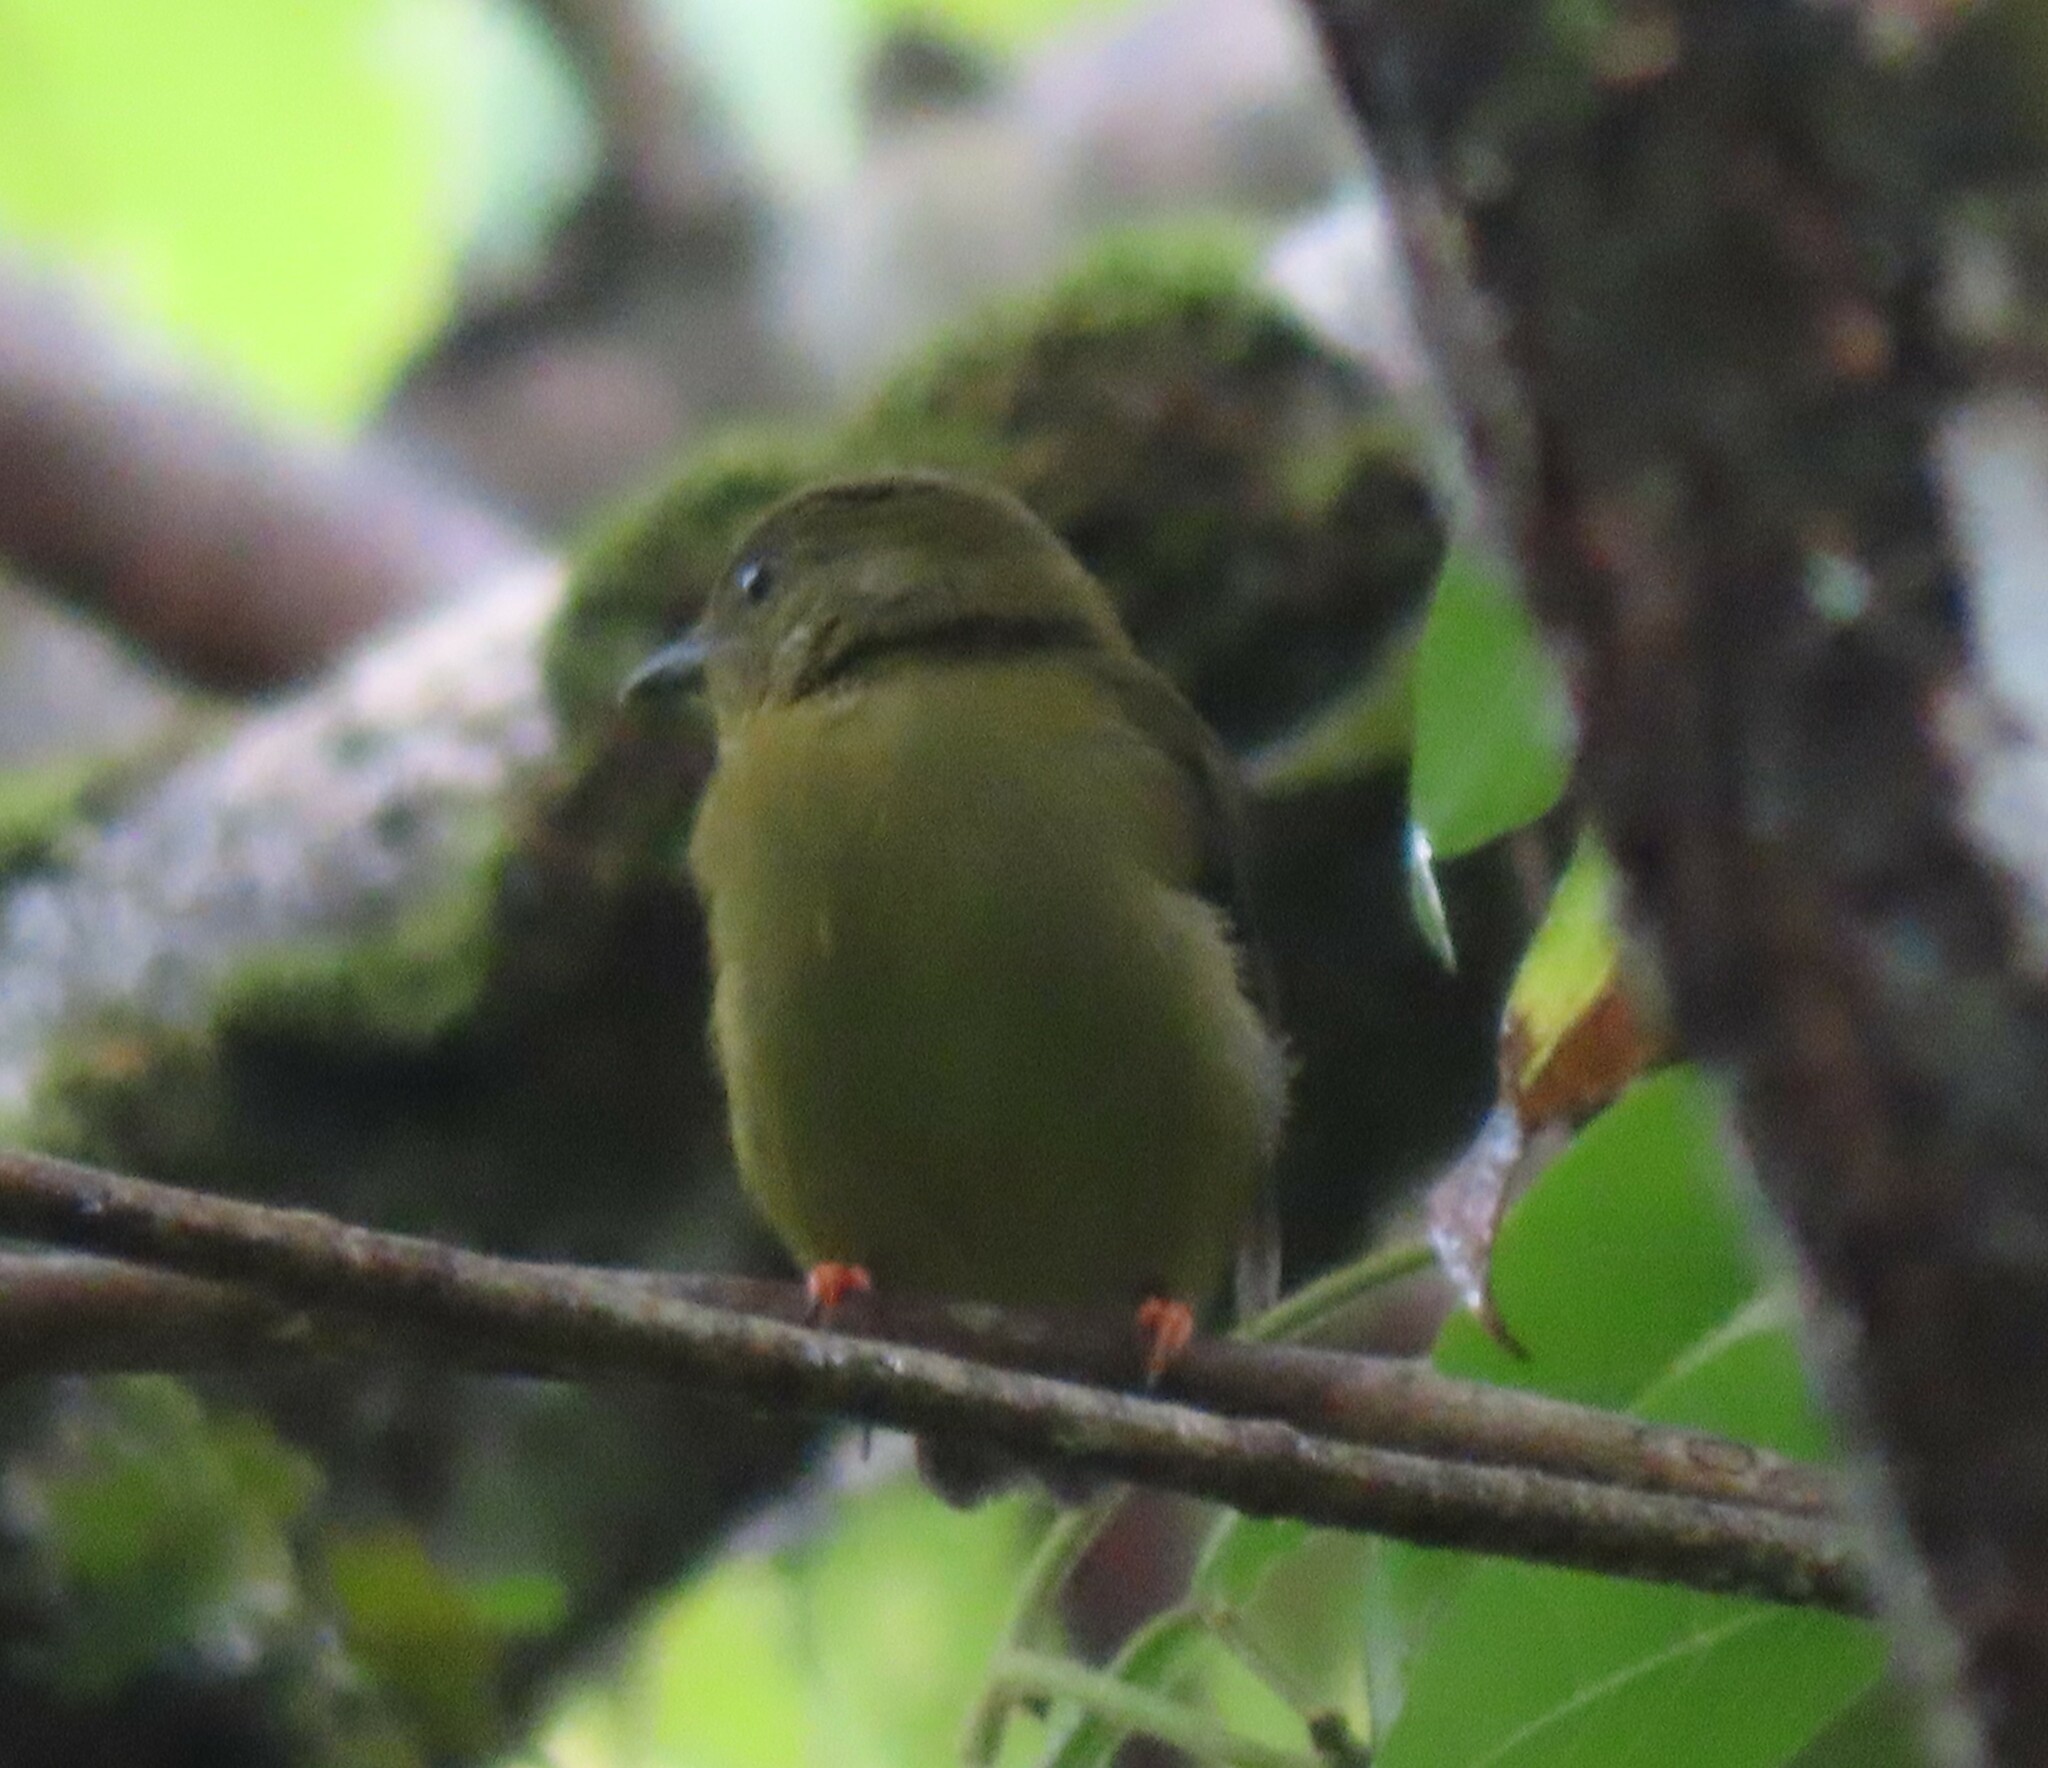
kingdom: Animalia
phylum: Chordata
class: Aves
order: Passeriformes
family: Pipridae
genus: Manacus
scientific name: Manacus vitellinus
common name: Golden-collared manakin
